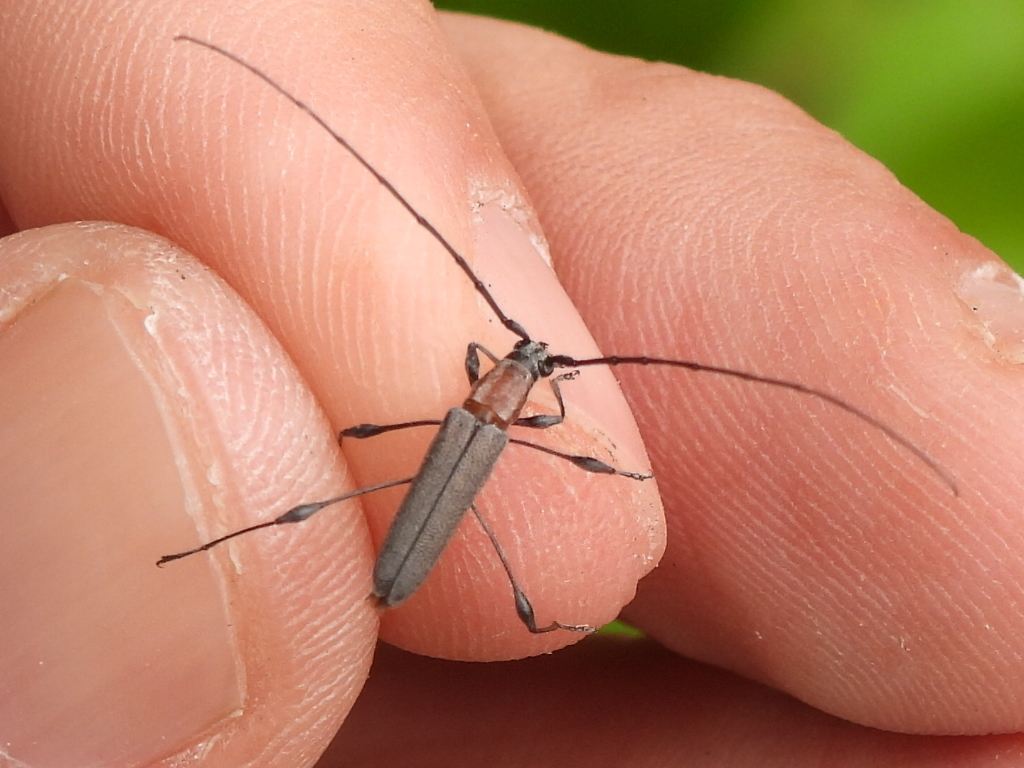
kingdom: Animalia
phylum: Arthropoda
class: Insecta
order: Coleoptera
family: Cerambycidae
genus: Rhopalophora
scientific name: Rhopalophora longipes
